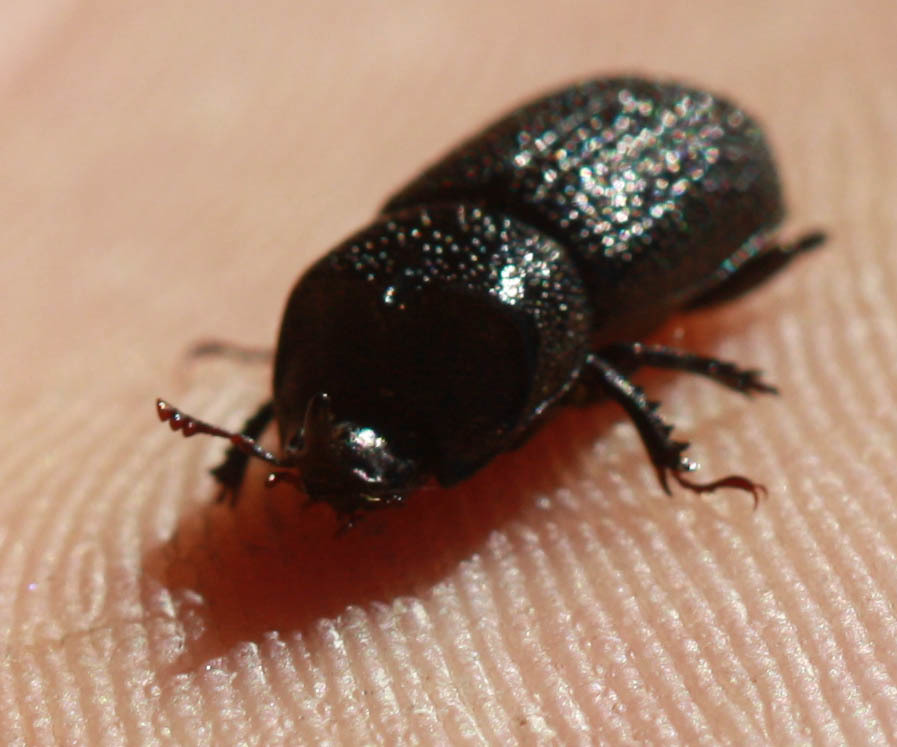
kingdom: Animalia
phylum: Arthropoda
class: Insecta
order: Coleoptera
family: Lucanidae
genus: Sinodendron
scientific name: Sinodendron rugosum
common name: Rugose stag beelte
